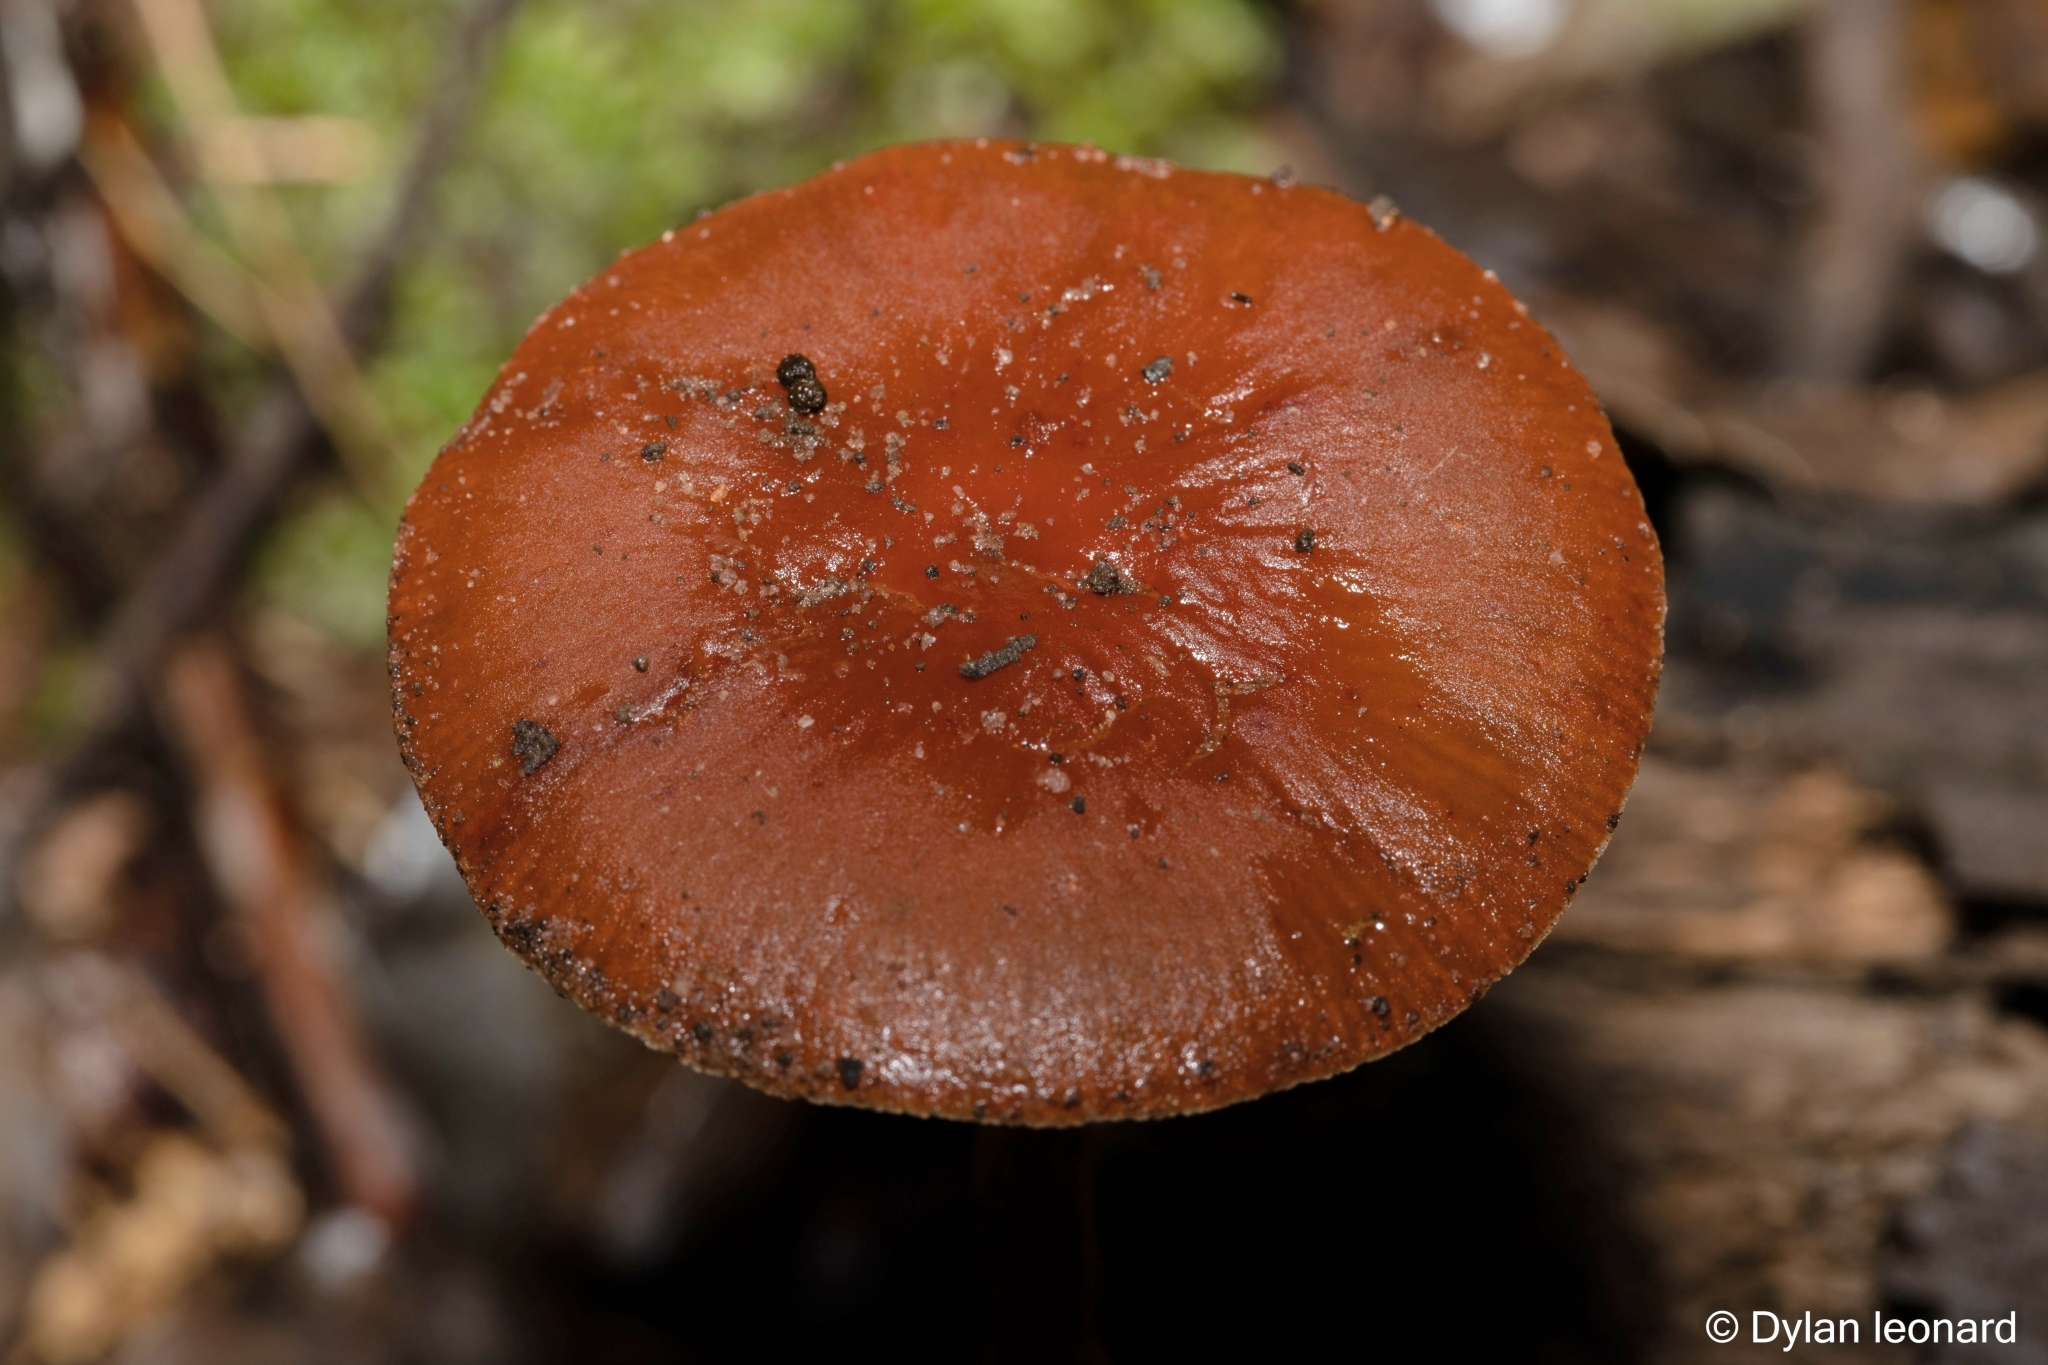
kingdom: Fungi
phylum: Basidiomycota
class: Agaricomycetes
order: Agaricales
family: Strophariaceae
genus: Leratiomyces
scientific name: Leratiomyces ceres
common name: Redlead roundhead
